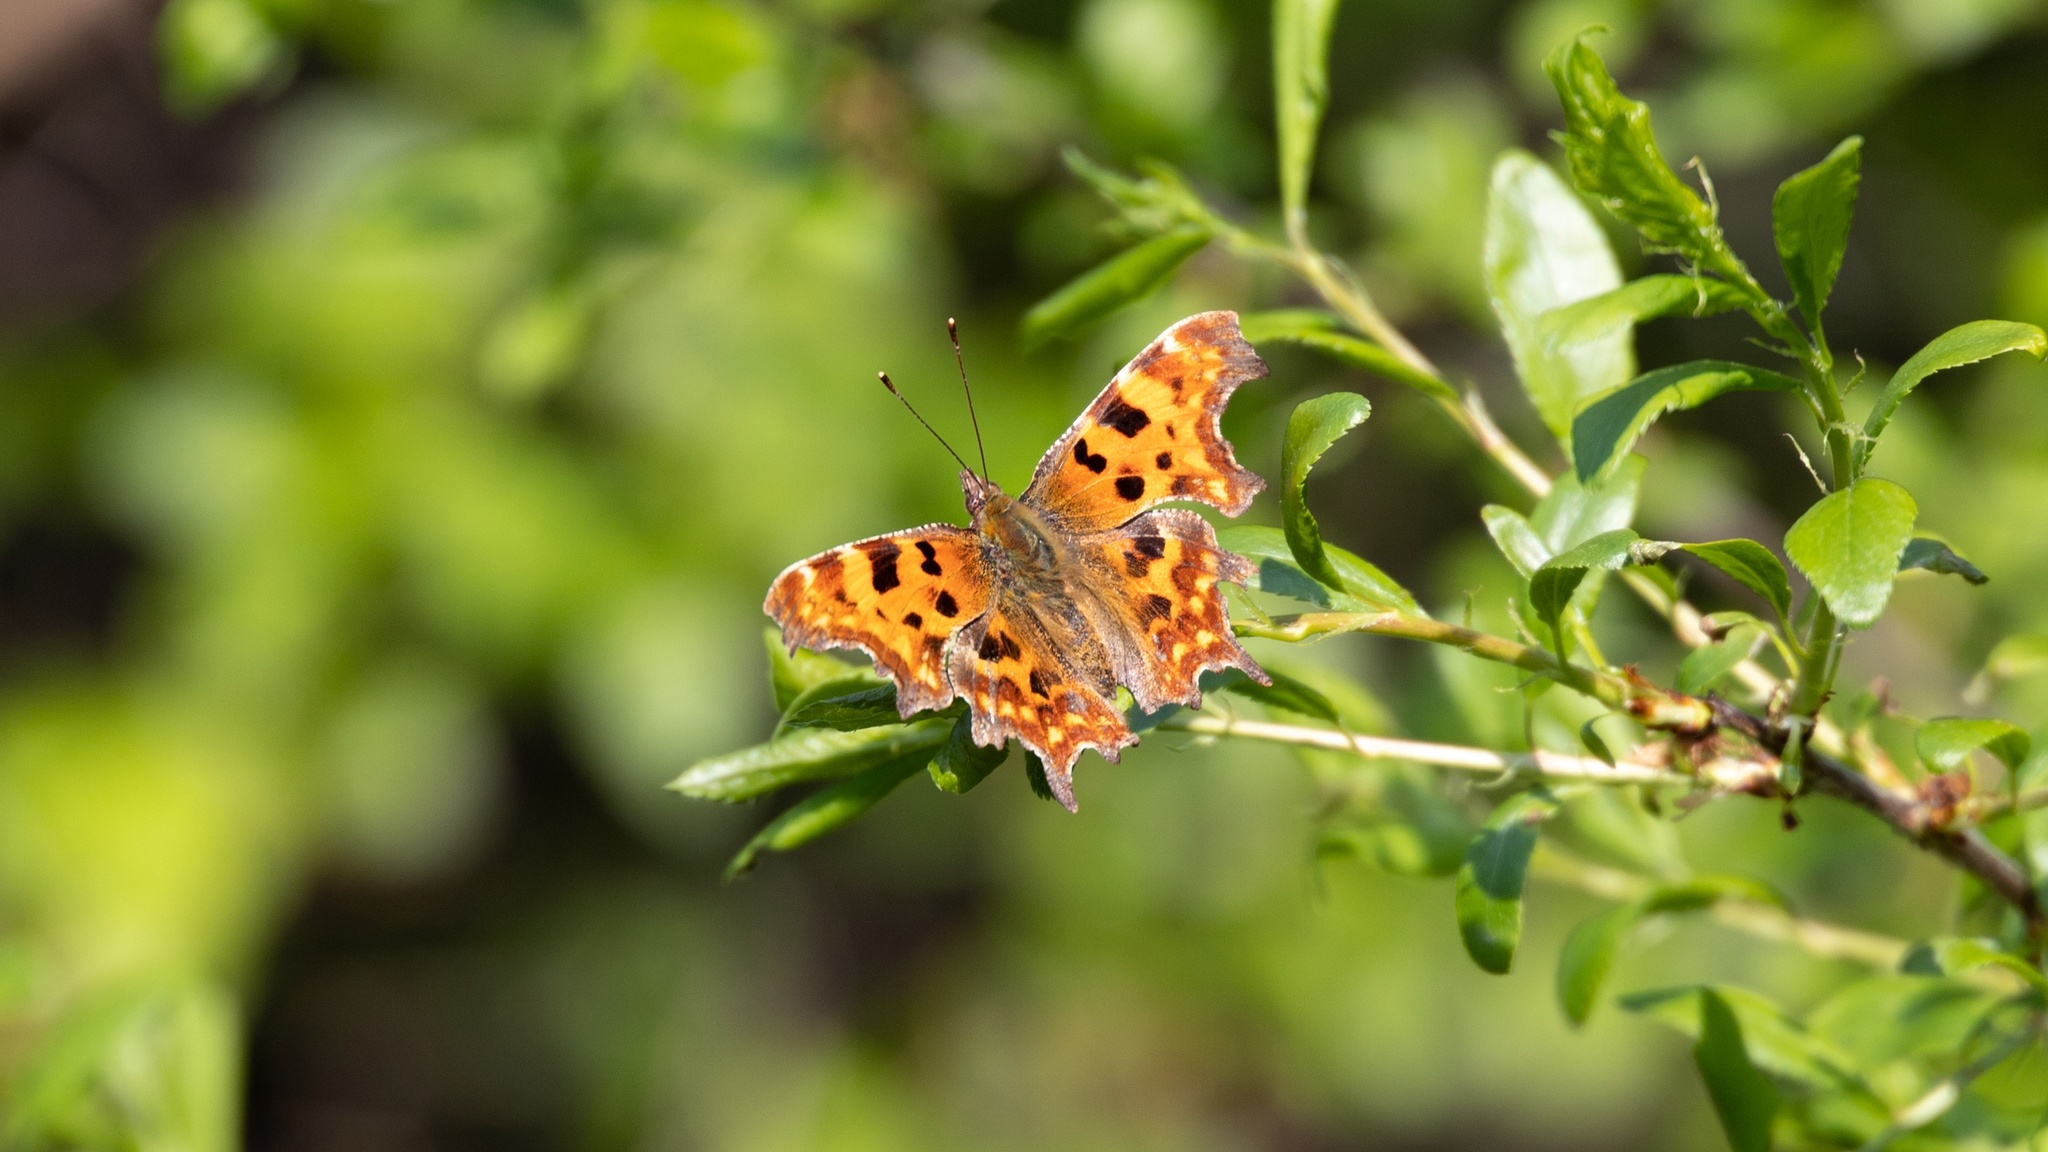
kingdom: Animalia
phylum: Arthropoda
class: Insecta
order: Lepidoptera
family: Nymphalidae
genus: Polygonia
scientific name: Polygonia c-album
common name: Comma
